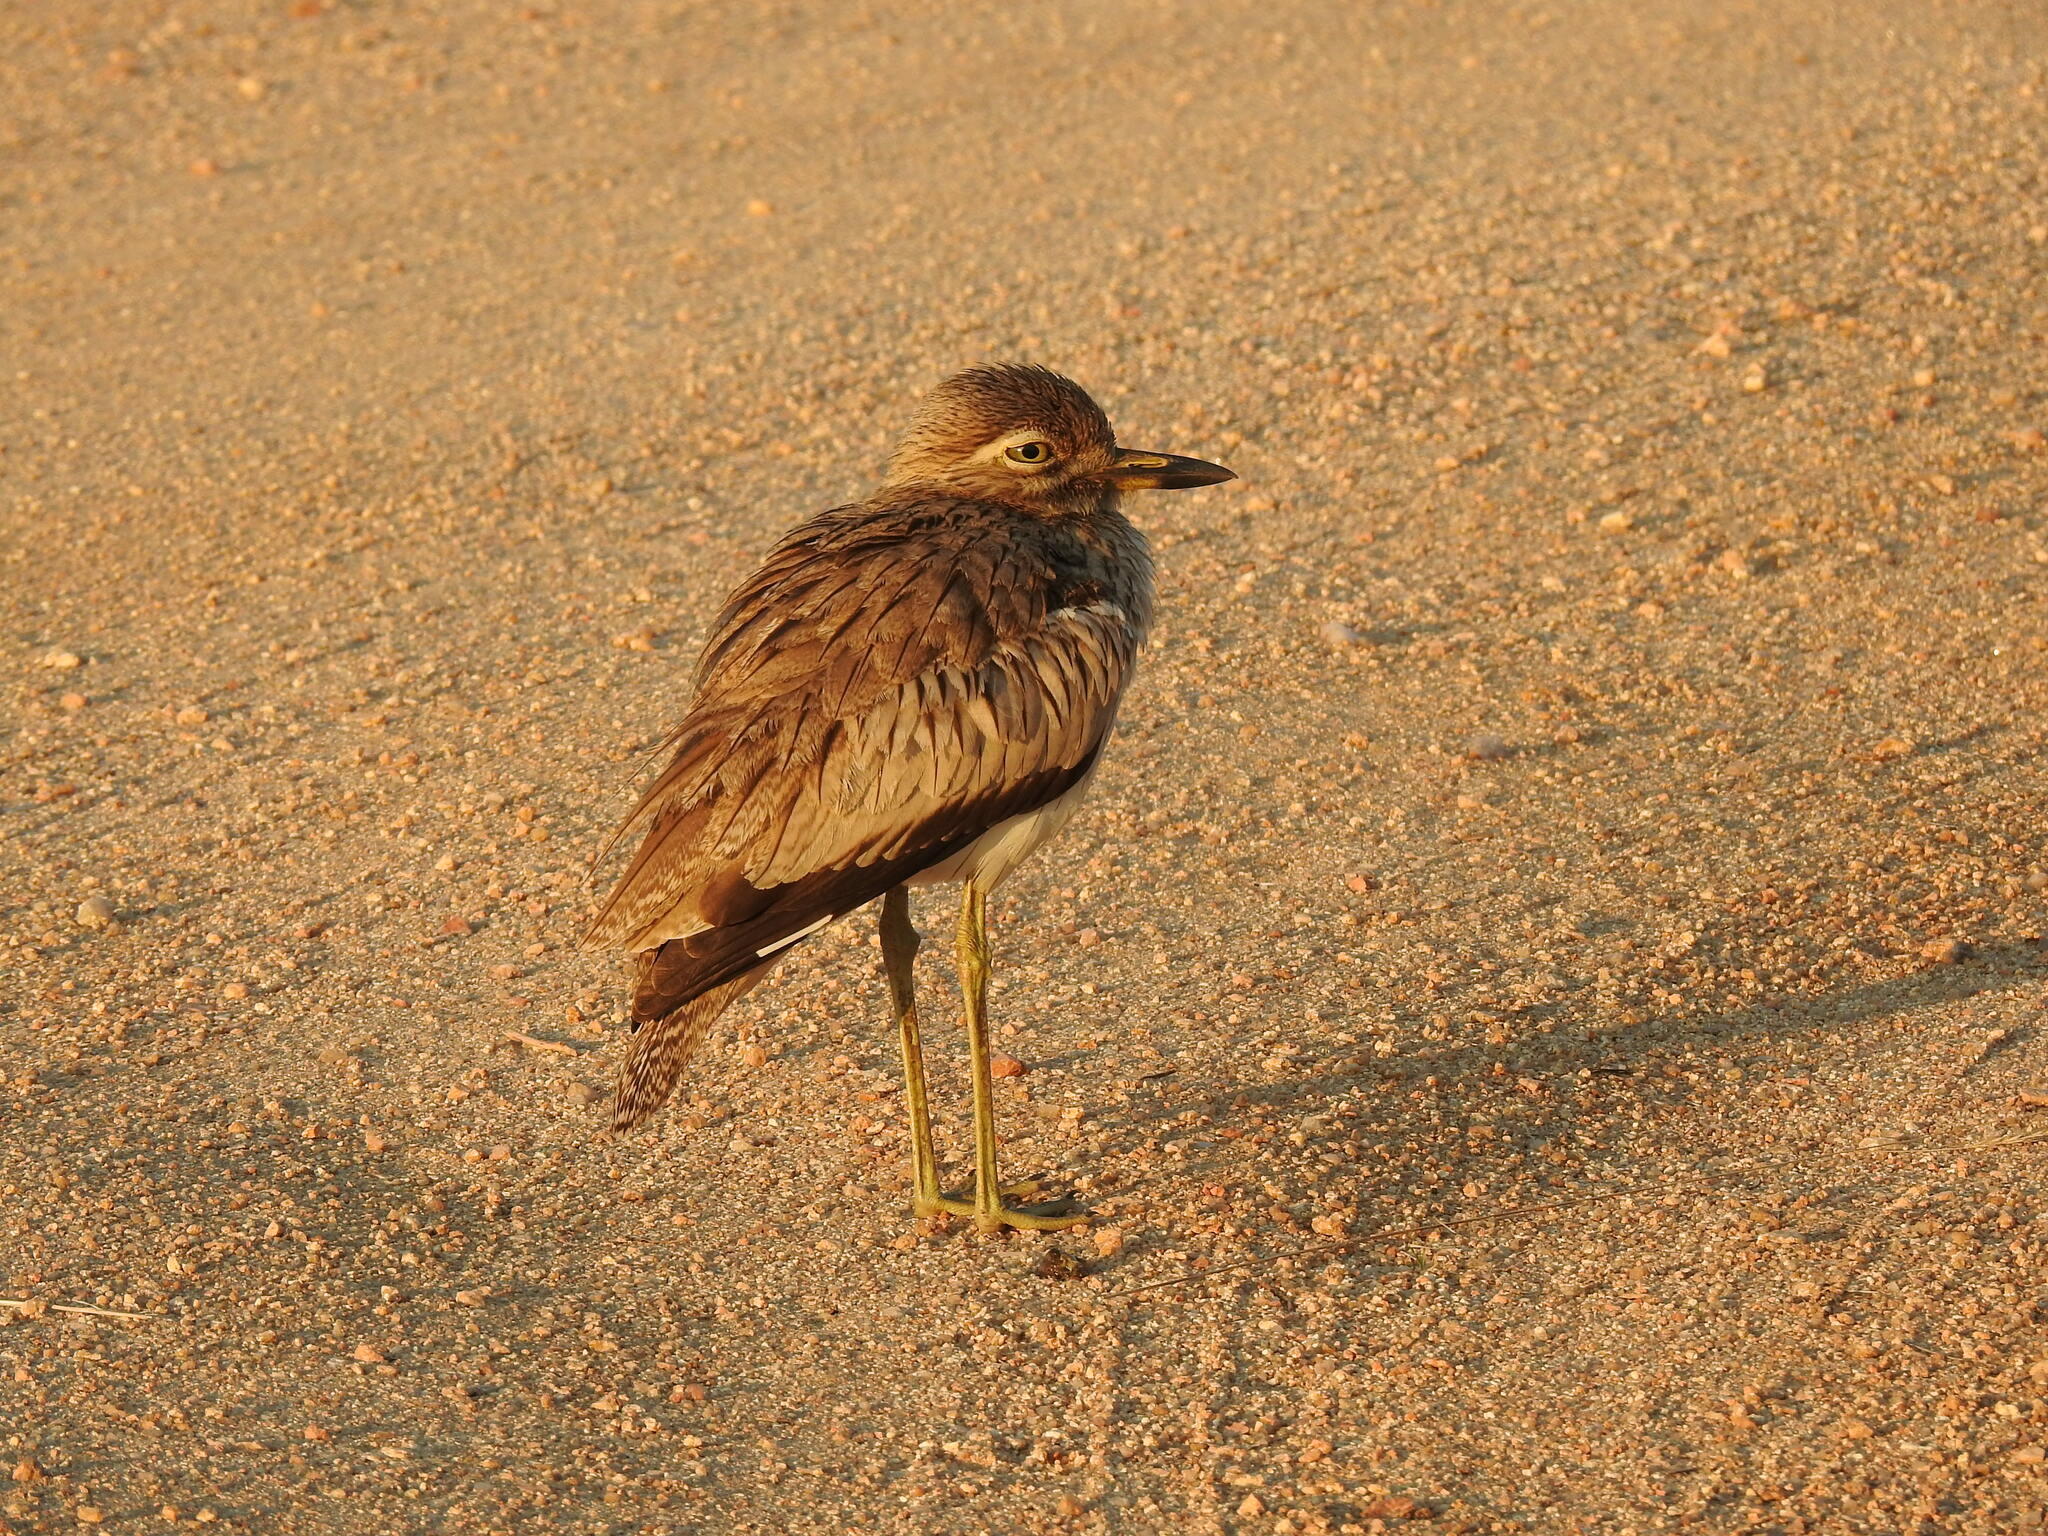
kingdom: Animalia
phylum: Chordata
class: Aves
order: Charadriiformes
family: Burhinidae
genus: Burhinus
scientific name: Burhinus vermiculatus
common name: Water thick-knee
